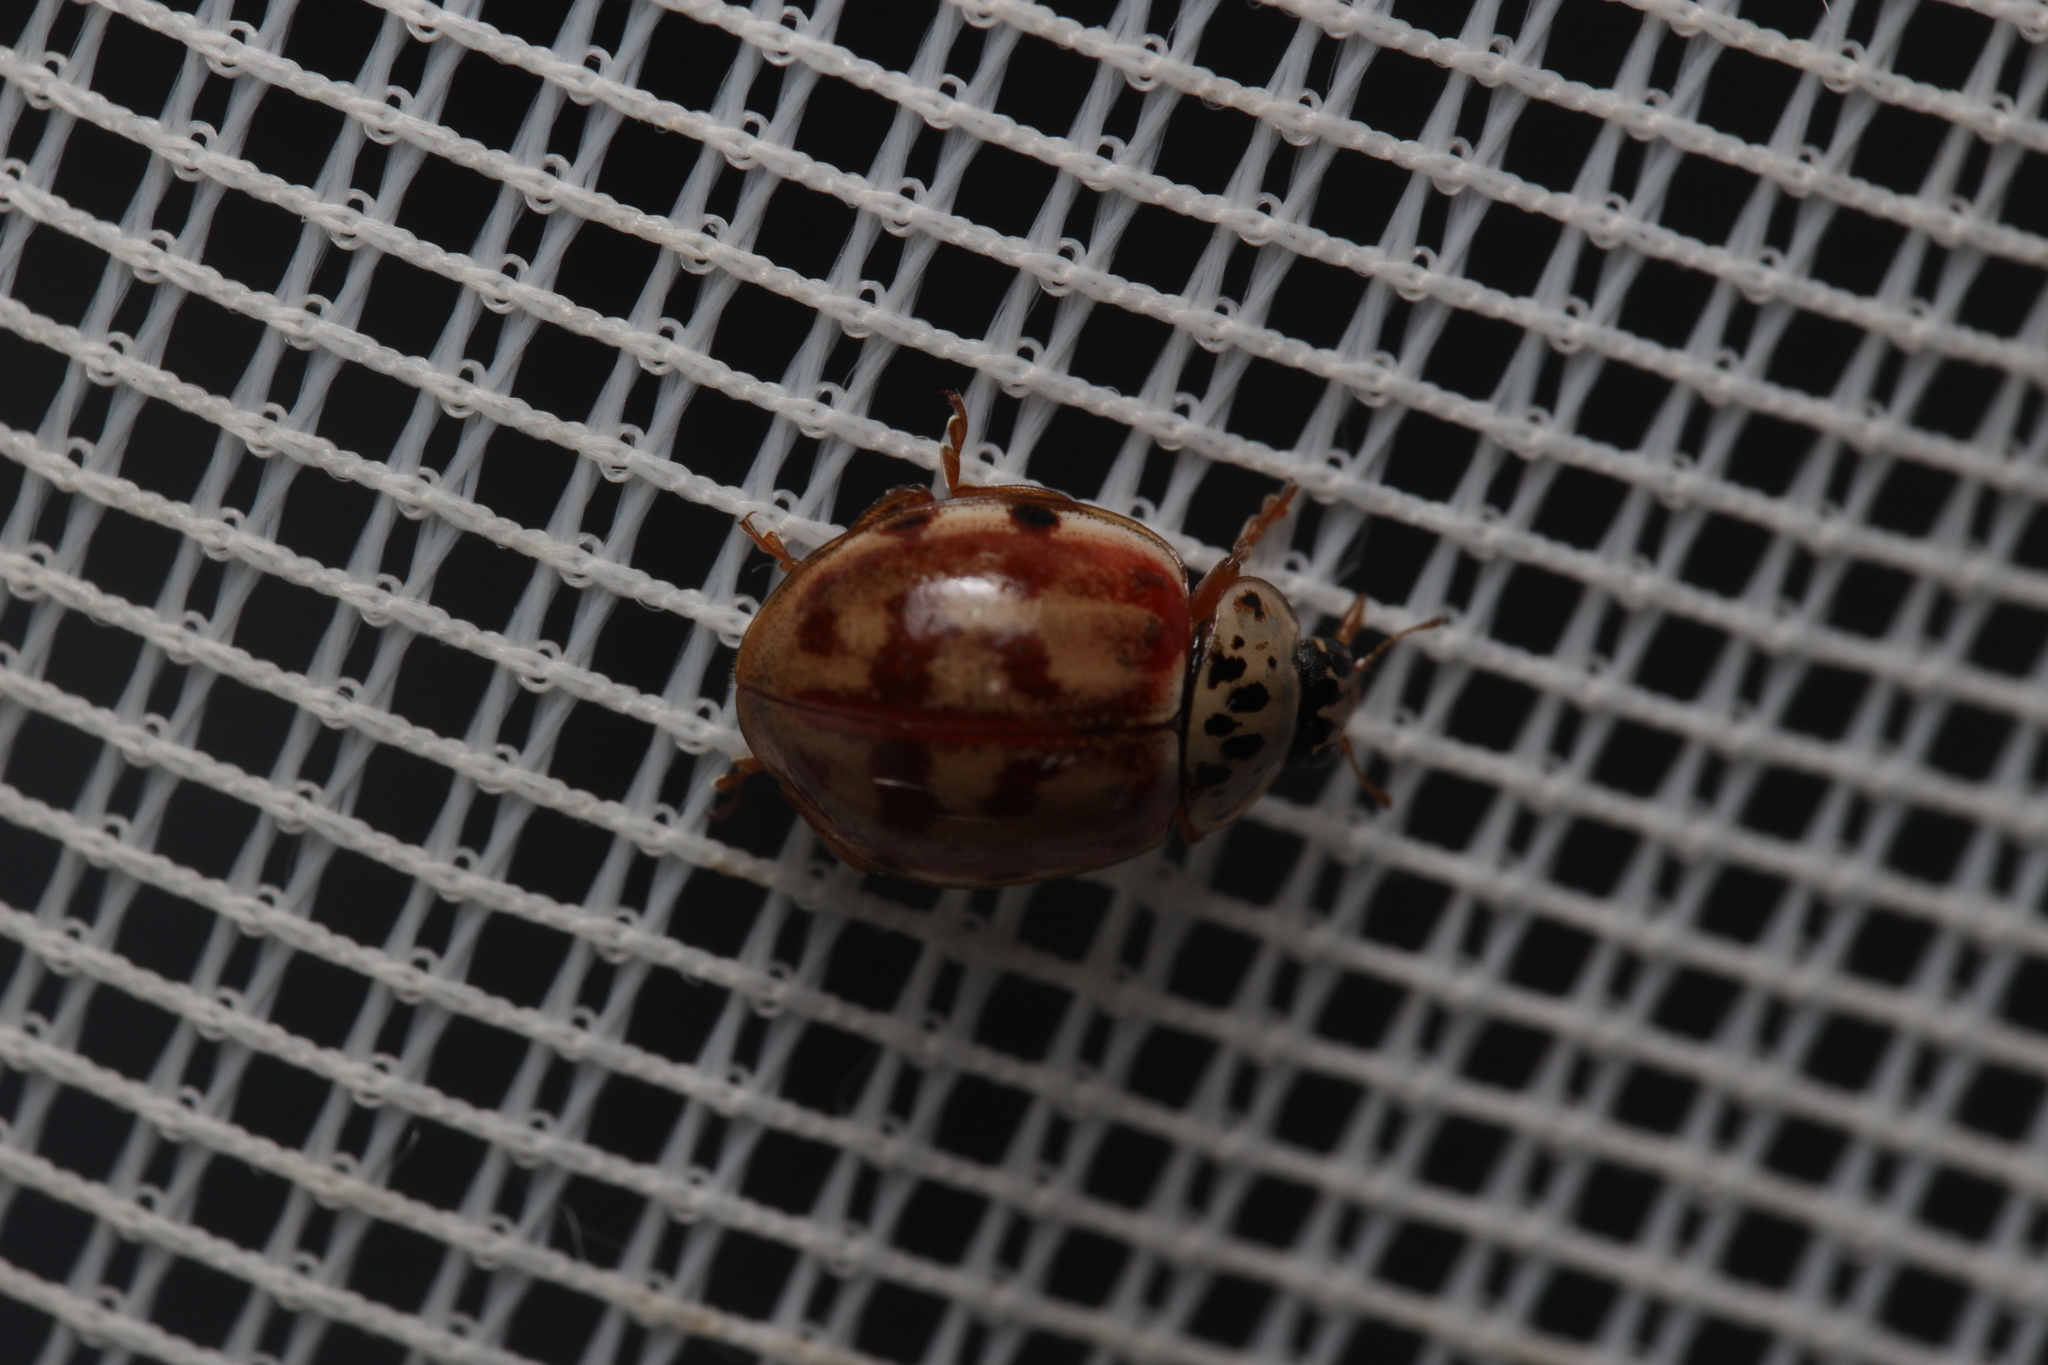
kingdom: Animalia
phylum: Arthropoda
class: Insecta
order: Coleoptera
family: Coccinellidae
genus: Harmonia
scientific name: Harmonia quadripunctata
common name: Cream-streaked ladybird
